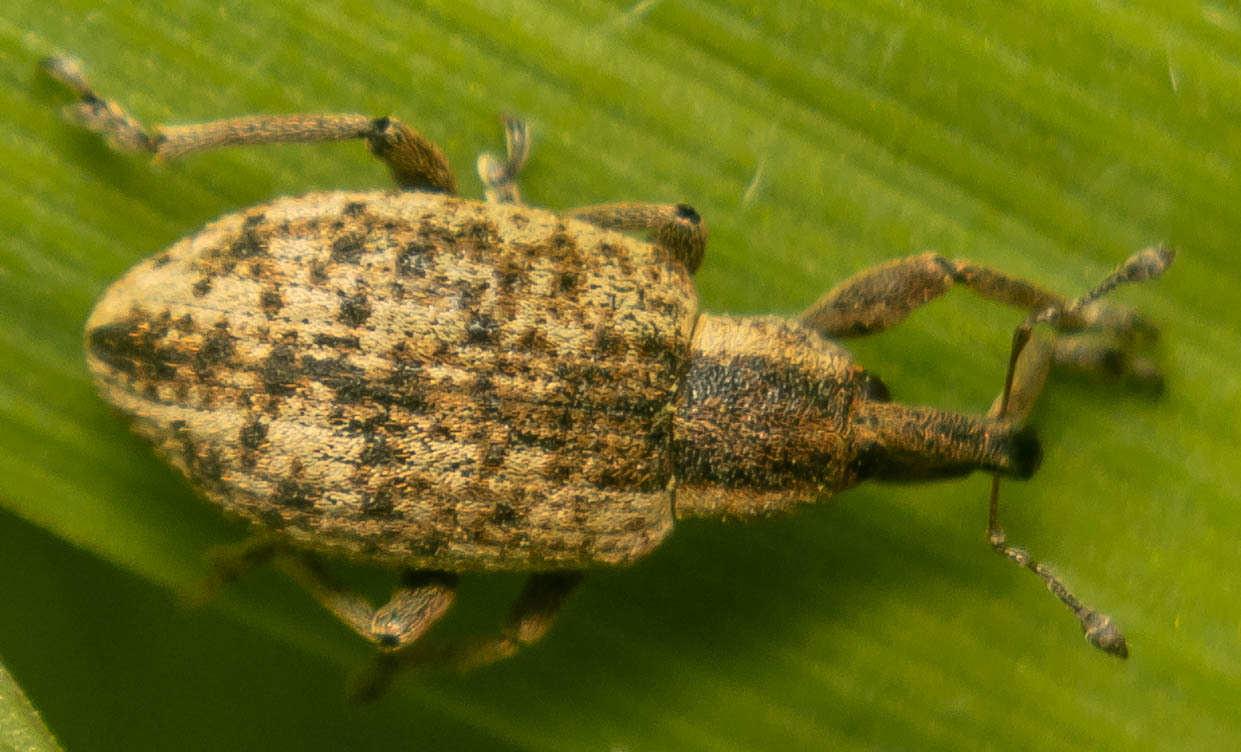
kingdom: Animalia
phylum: Arthropoda
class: Insecta
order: Coleoptera
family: Curculionidae
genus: Hypera
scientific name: Hypera conmaculata
